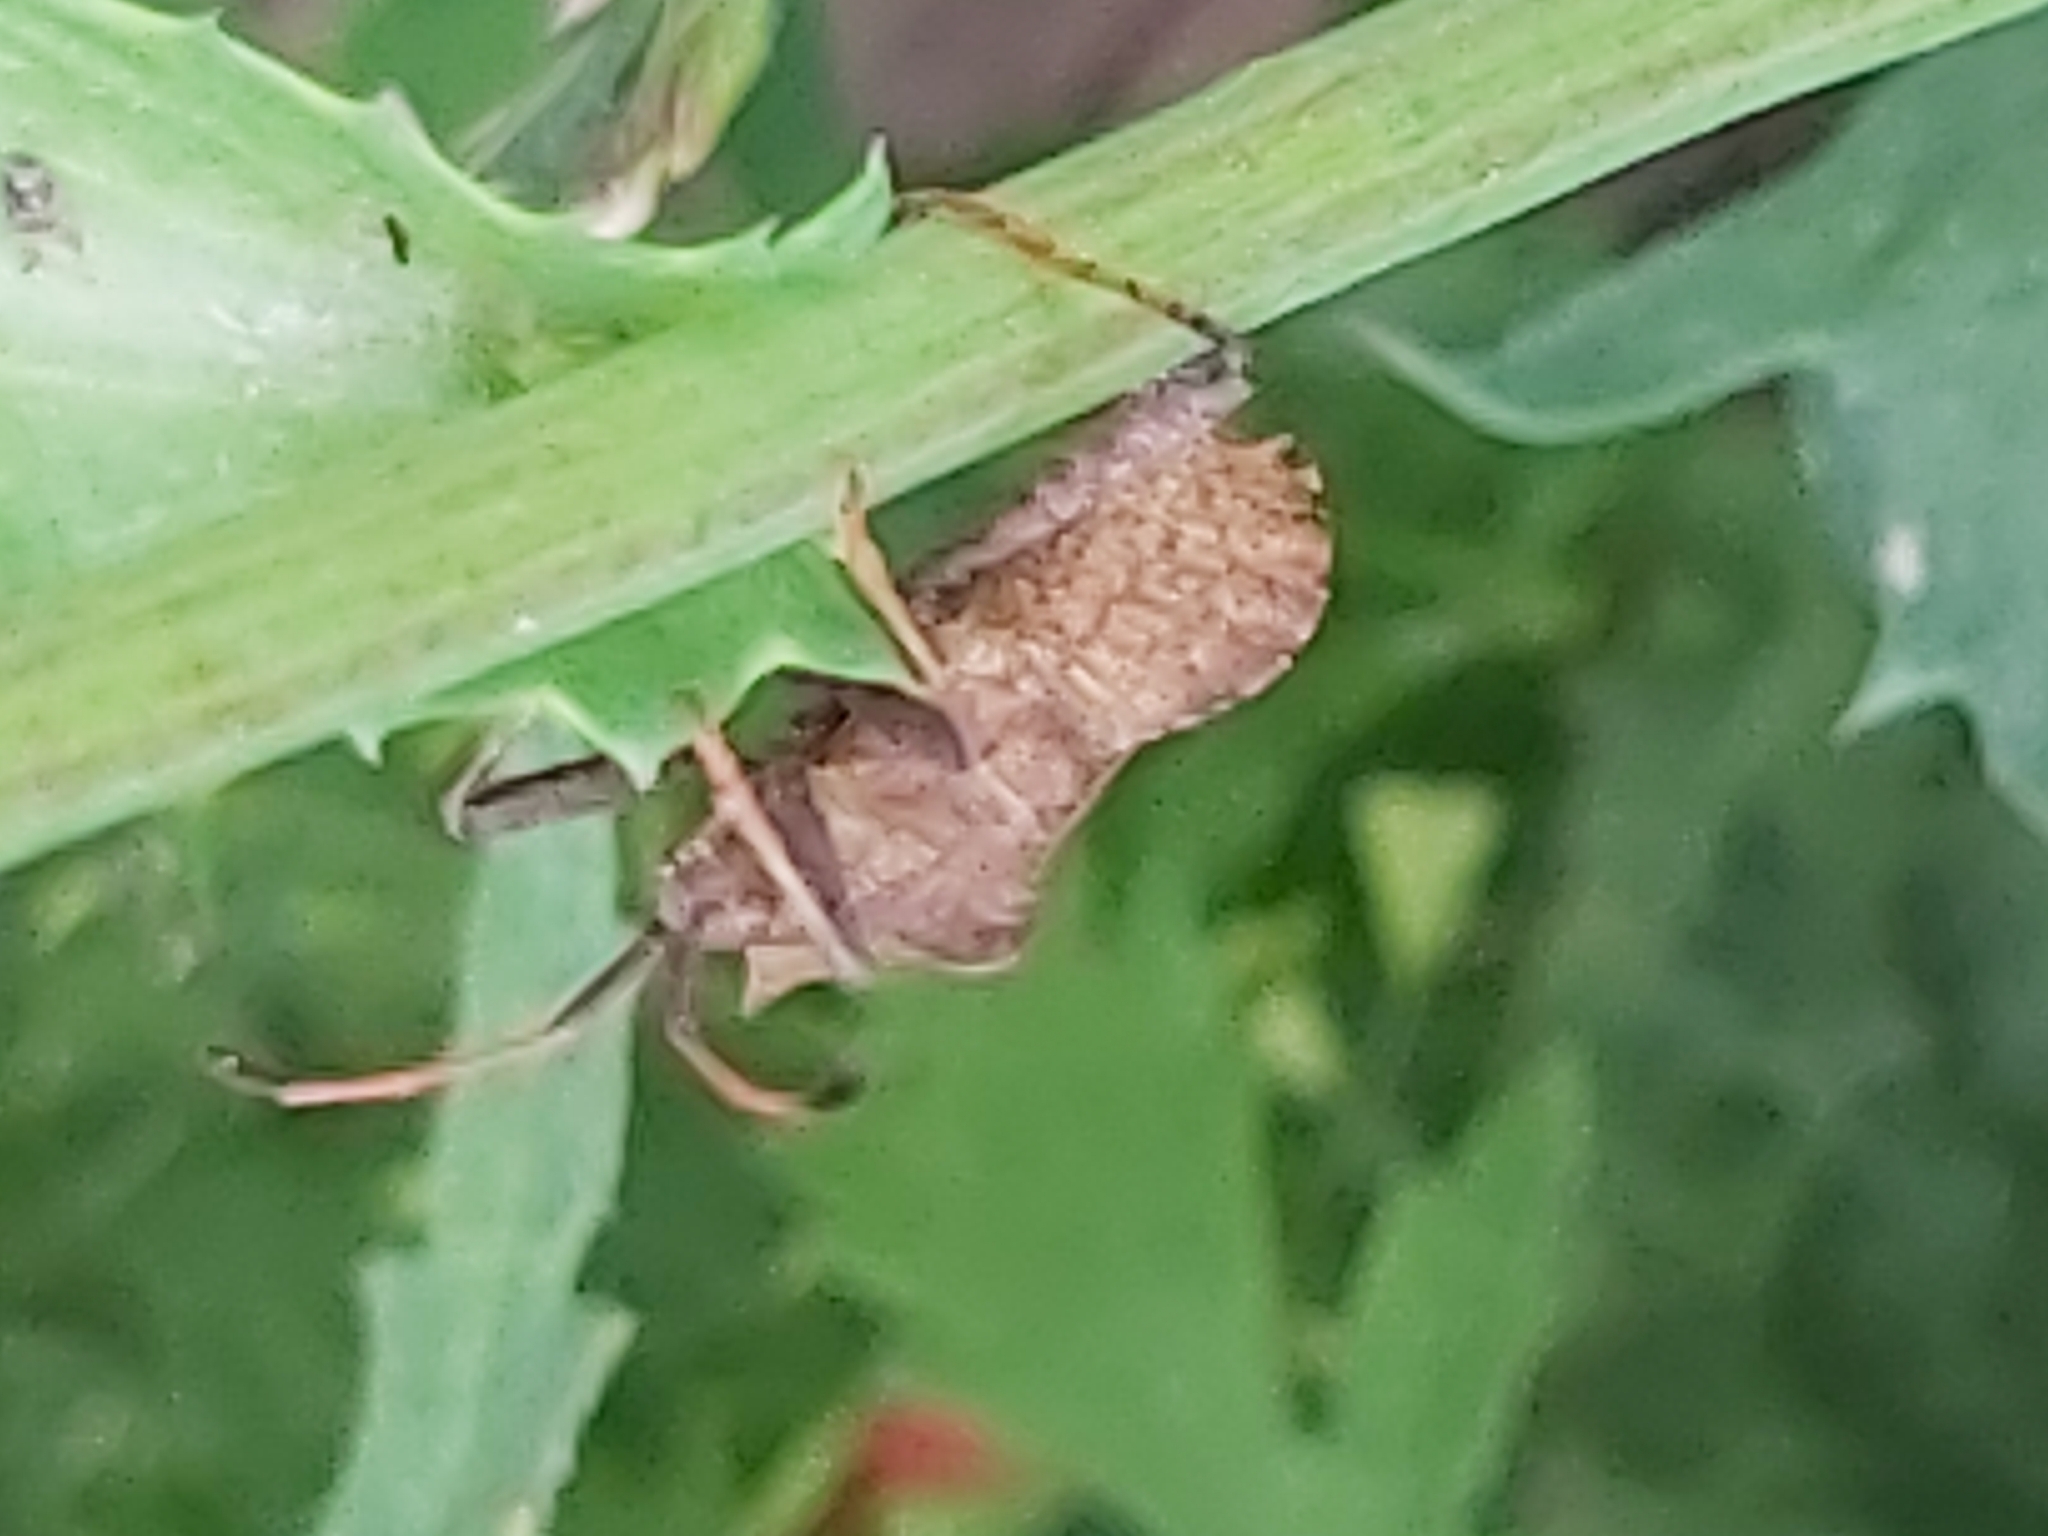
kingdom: Animalia
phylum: Arthropoda
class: Insecta
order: Hemiptera
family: Coreidae
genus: Coreus
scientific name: Coreus marginatus
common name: Dock bug
